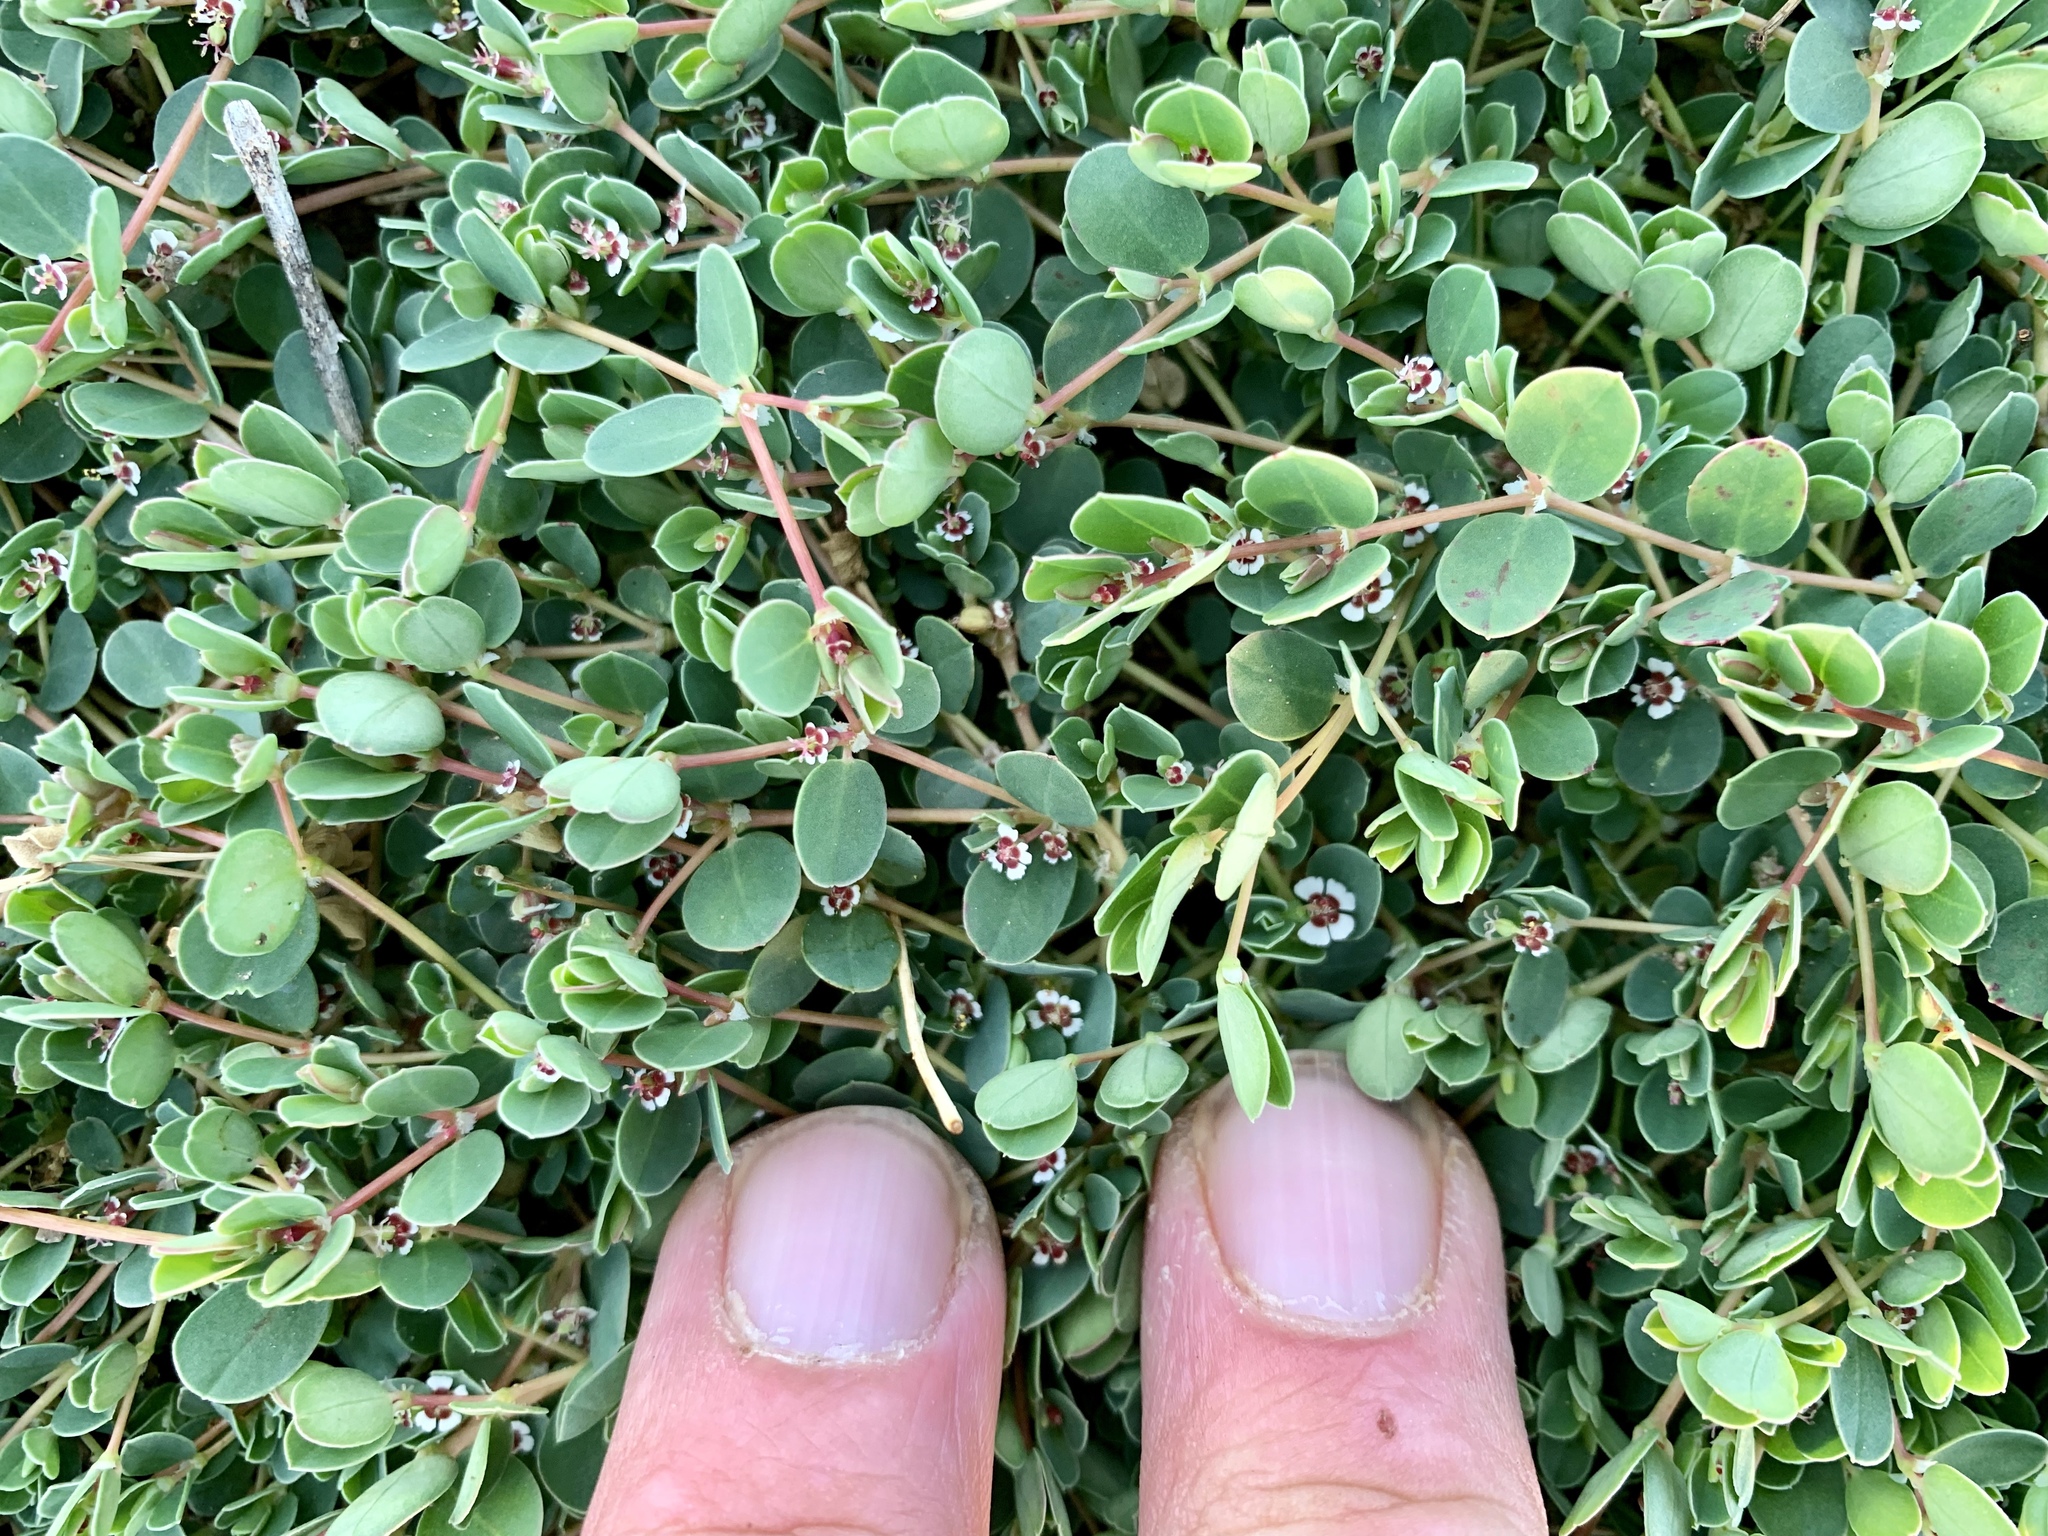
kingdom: Plantae
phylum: Tracheophyta
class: Magnoliopsida
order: Malpighiales
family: Euphorbiaceae
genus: Euphorbia
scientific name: Euphorbia albomarginata
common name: Whitemargin sandmat
